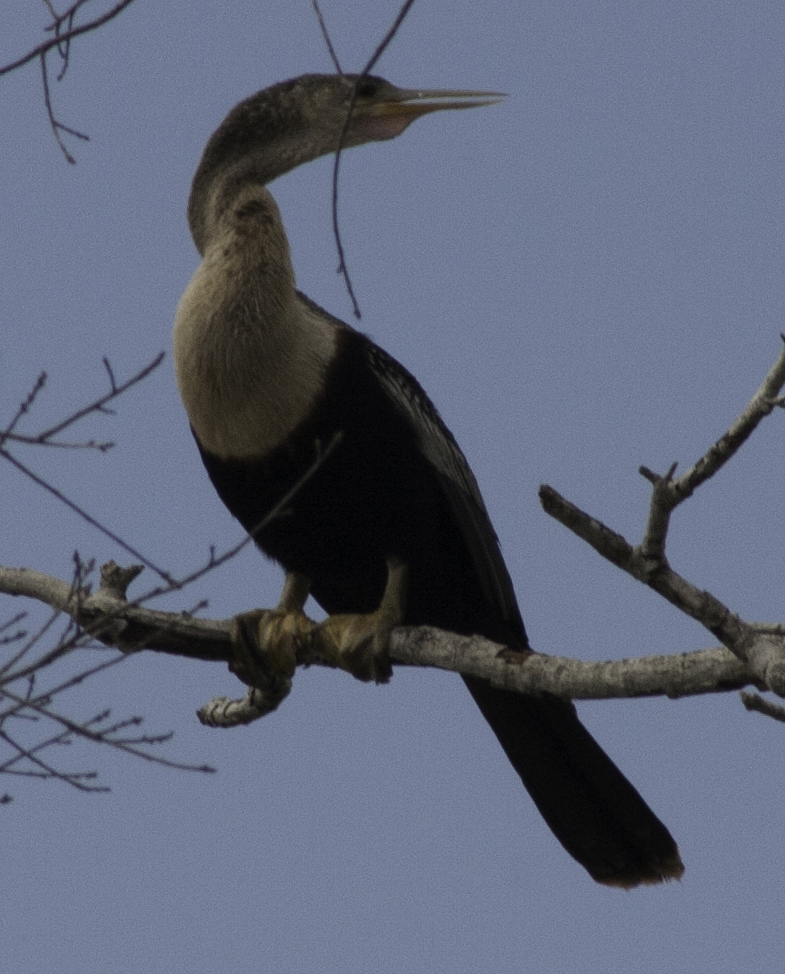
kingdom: Animalia
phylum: Chordata
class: Aves
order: Suliformes
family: Anhingidae
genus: Anhinga
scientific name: Anhinga anhinga
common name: Anhinga
